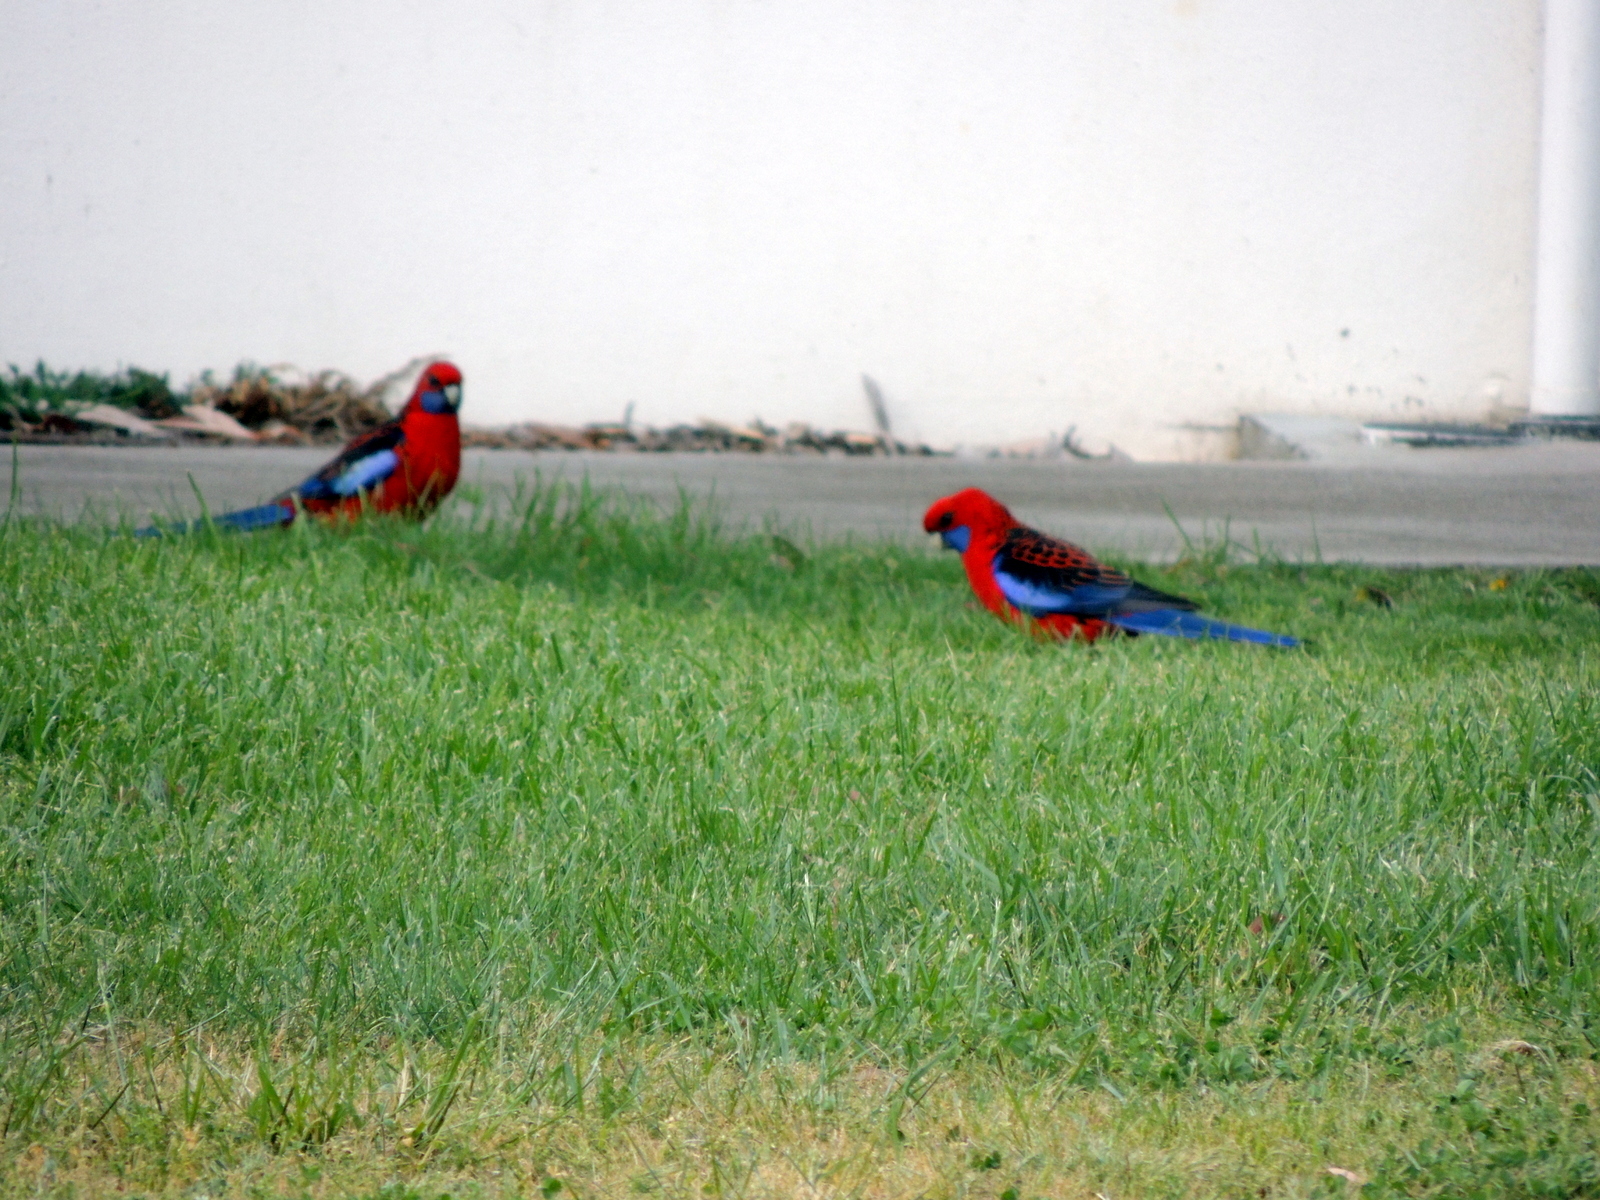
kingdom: Animalia
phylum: Chordata
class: Aves
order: Psittaciformes
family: Psittacidae
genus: Platycercus
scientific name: Platycercus elegans
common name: Crimson rosella
